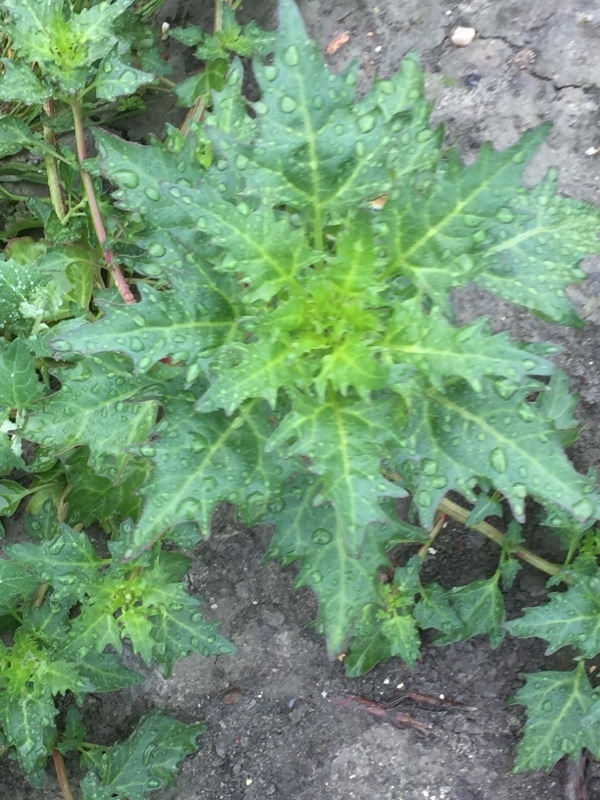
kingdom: Plantae
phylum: Tracheophyta
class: Magnoliopsida
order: Caryophyllales
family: Amaranthaceae
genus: Oxybasis
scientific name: Oxybasis rubra
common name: Red goosefoot
